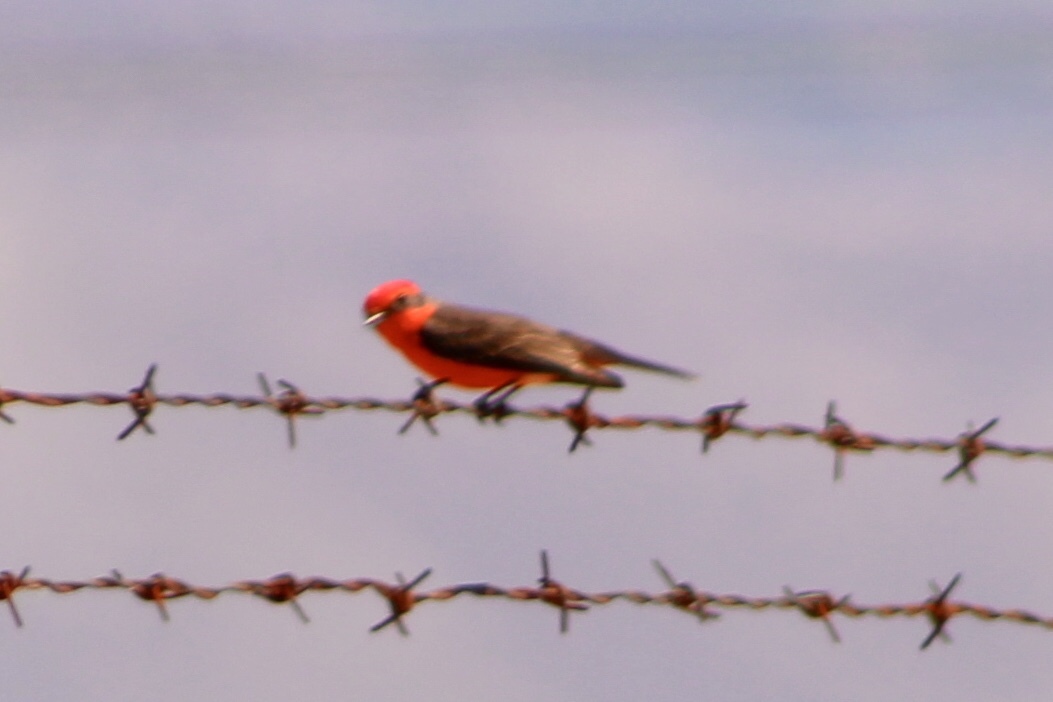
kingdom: Animalia
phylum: Chordata
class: Aves
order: Passeriformes
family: Tyrannidae
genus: Pyrocephalus
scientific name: Pyrocephalus rubinus
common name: Vermilion flycatcher
